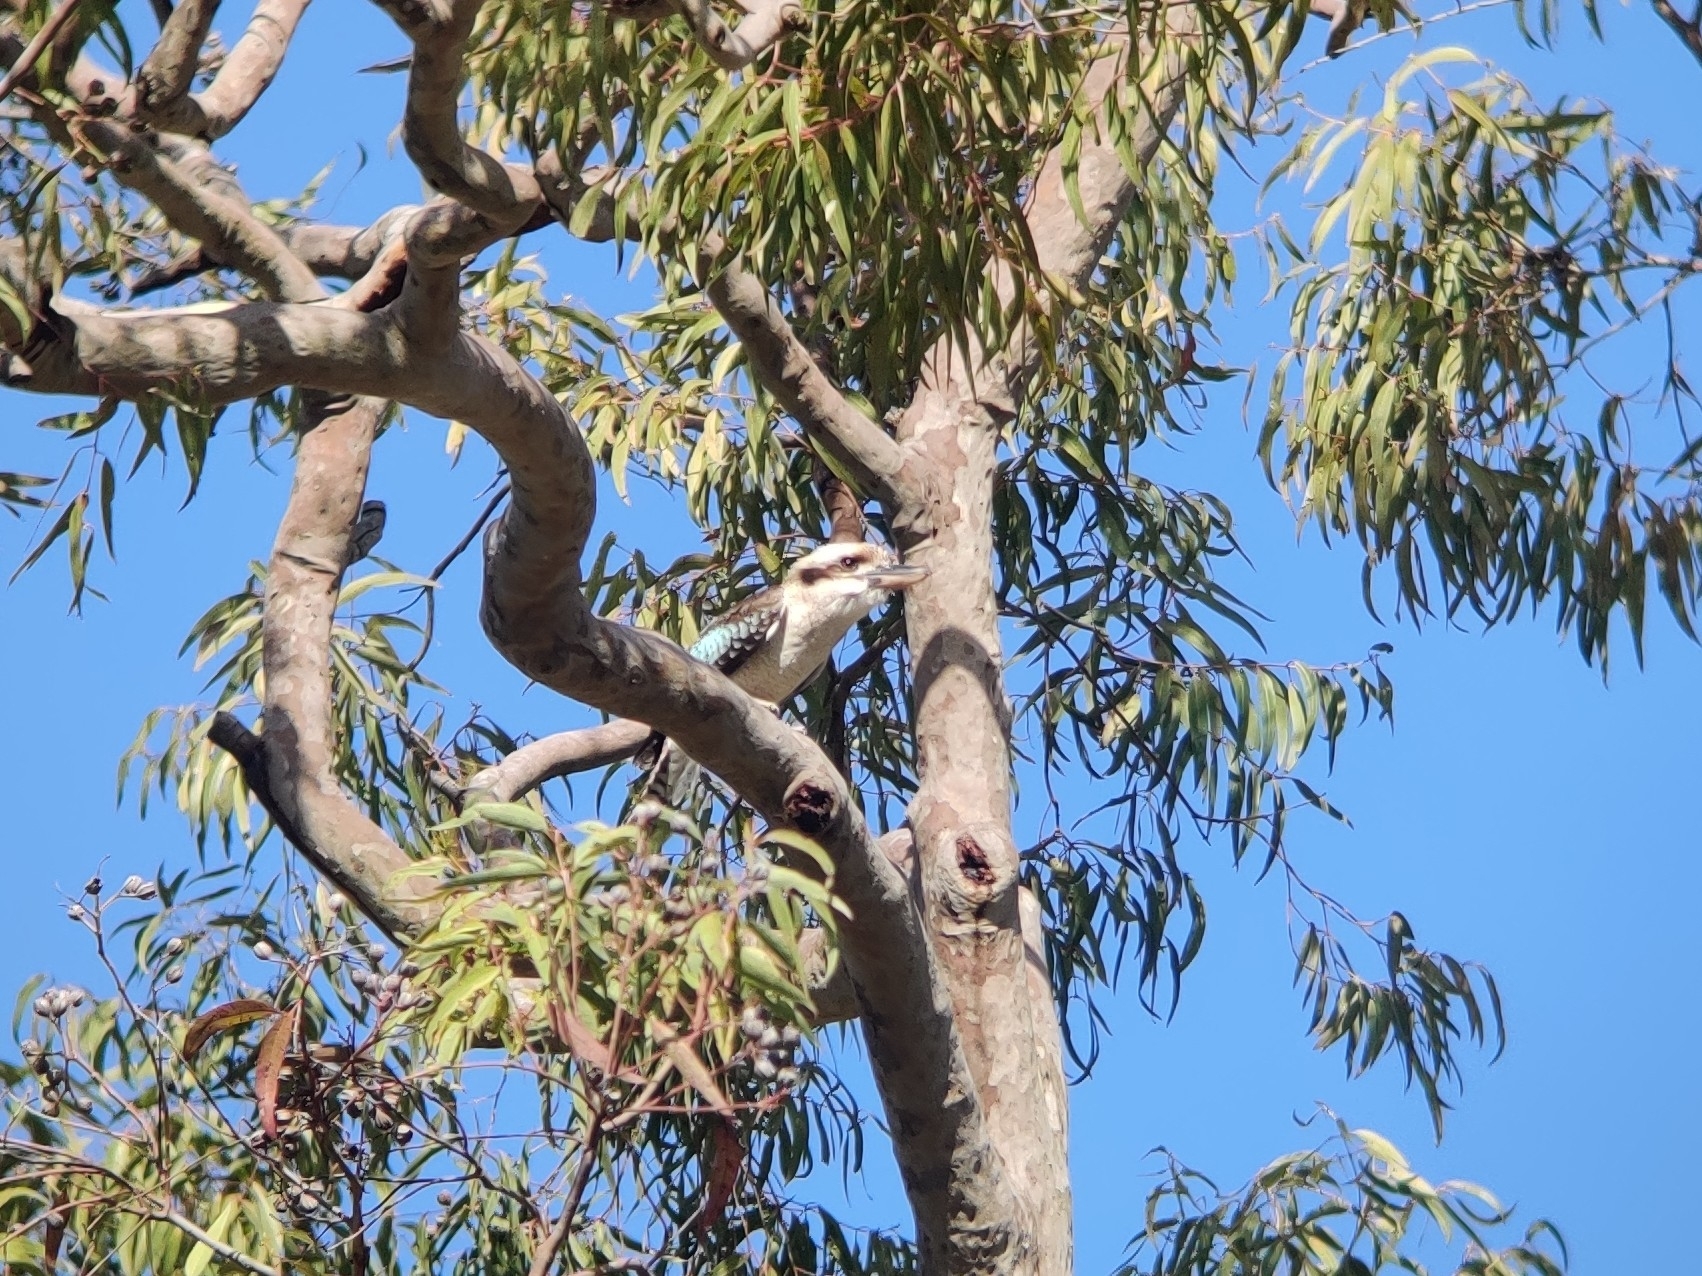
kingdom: Animalia
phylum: Chordata
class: Aves
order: Coraciiformes
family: Alcedinidae
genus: Dacelo
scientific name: Dacelo novaeguineae
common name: Laughing kookaburra
